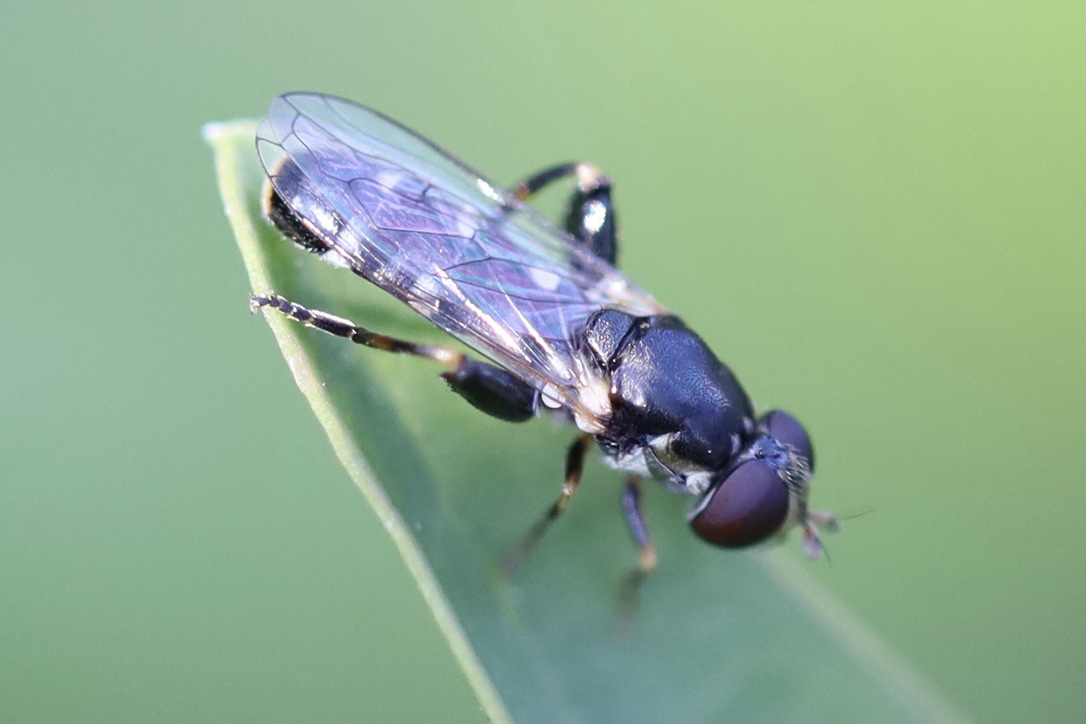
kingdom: Animalia
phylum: Arthropoda
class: Insecta
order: Diptera
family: Syrphidae
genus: Syritta
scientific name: Syritta pipiens
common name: Hover fly
